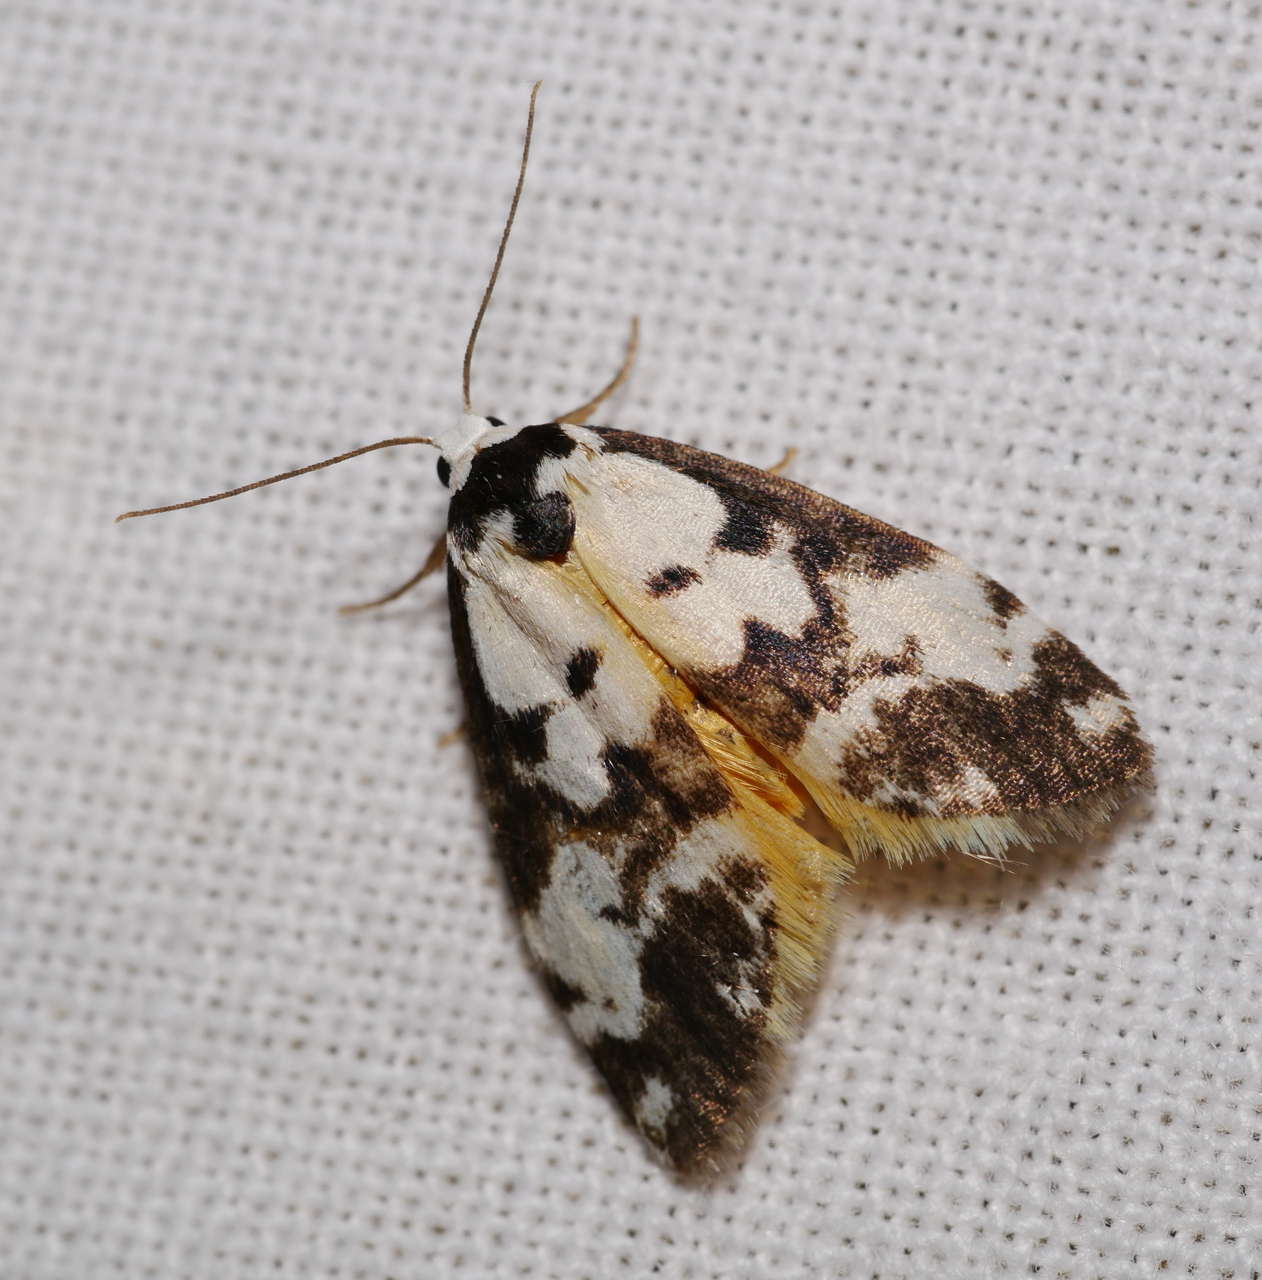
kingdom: Animalia
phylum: Arthropoda
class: Insecta
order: Lepidoptera
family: Erebidae
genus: Thallarcha
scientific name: Thallarcha pellax
